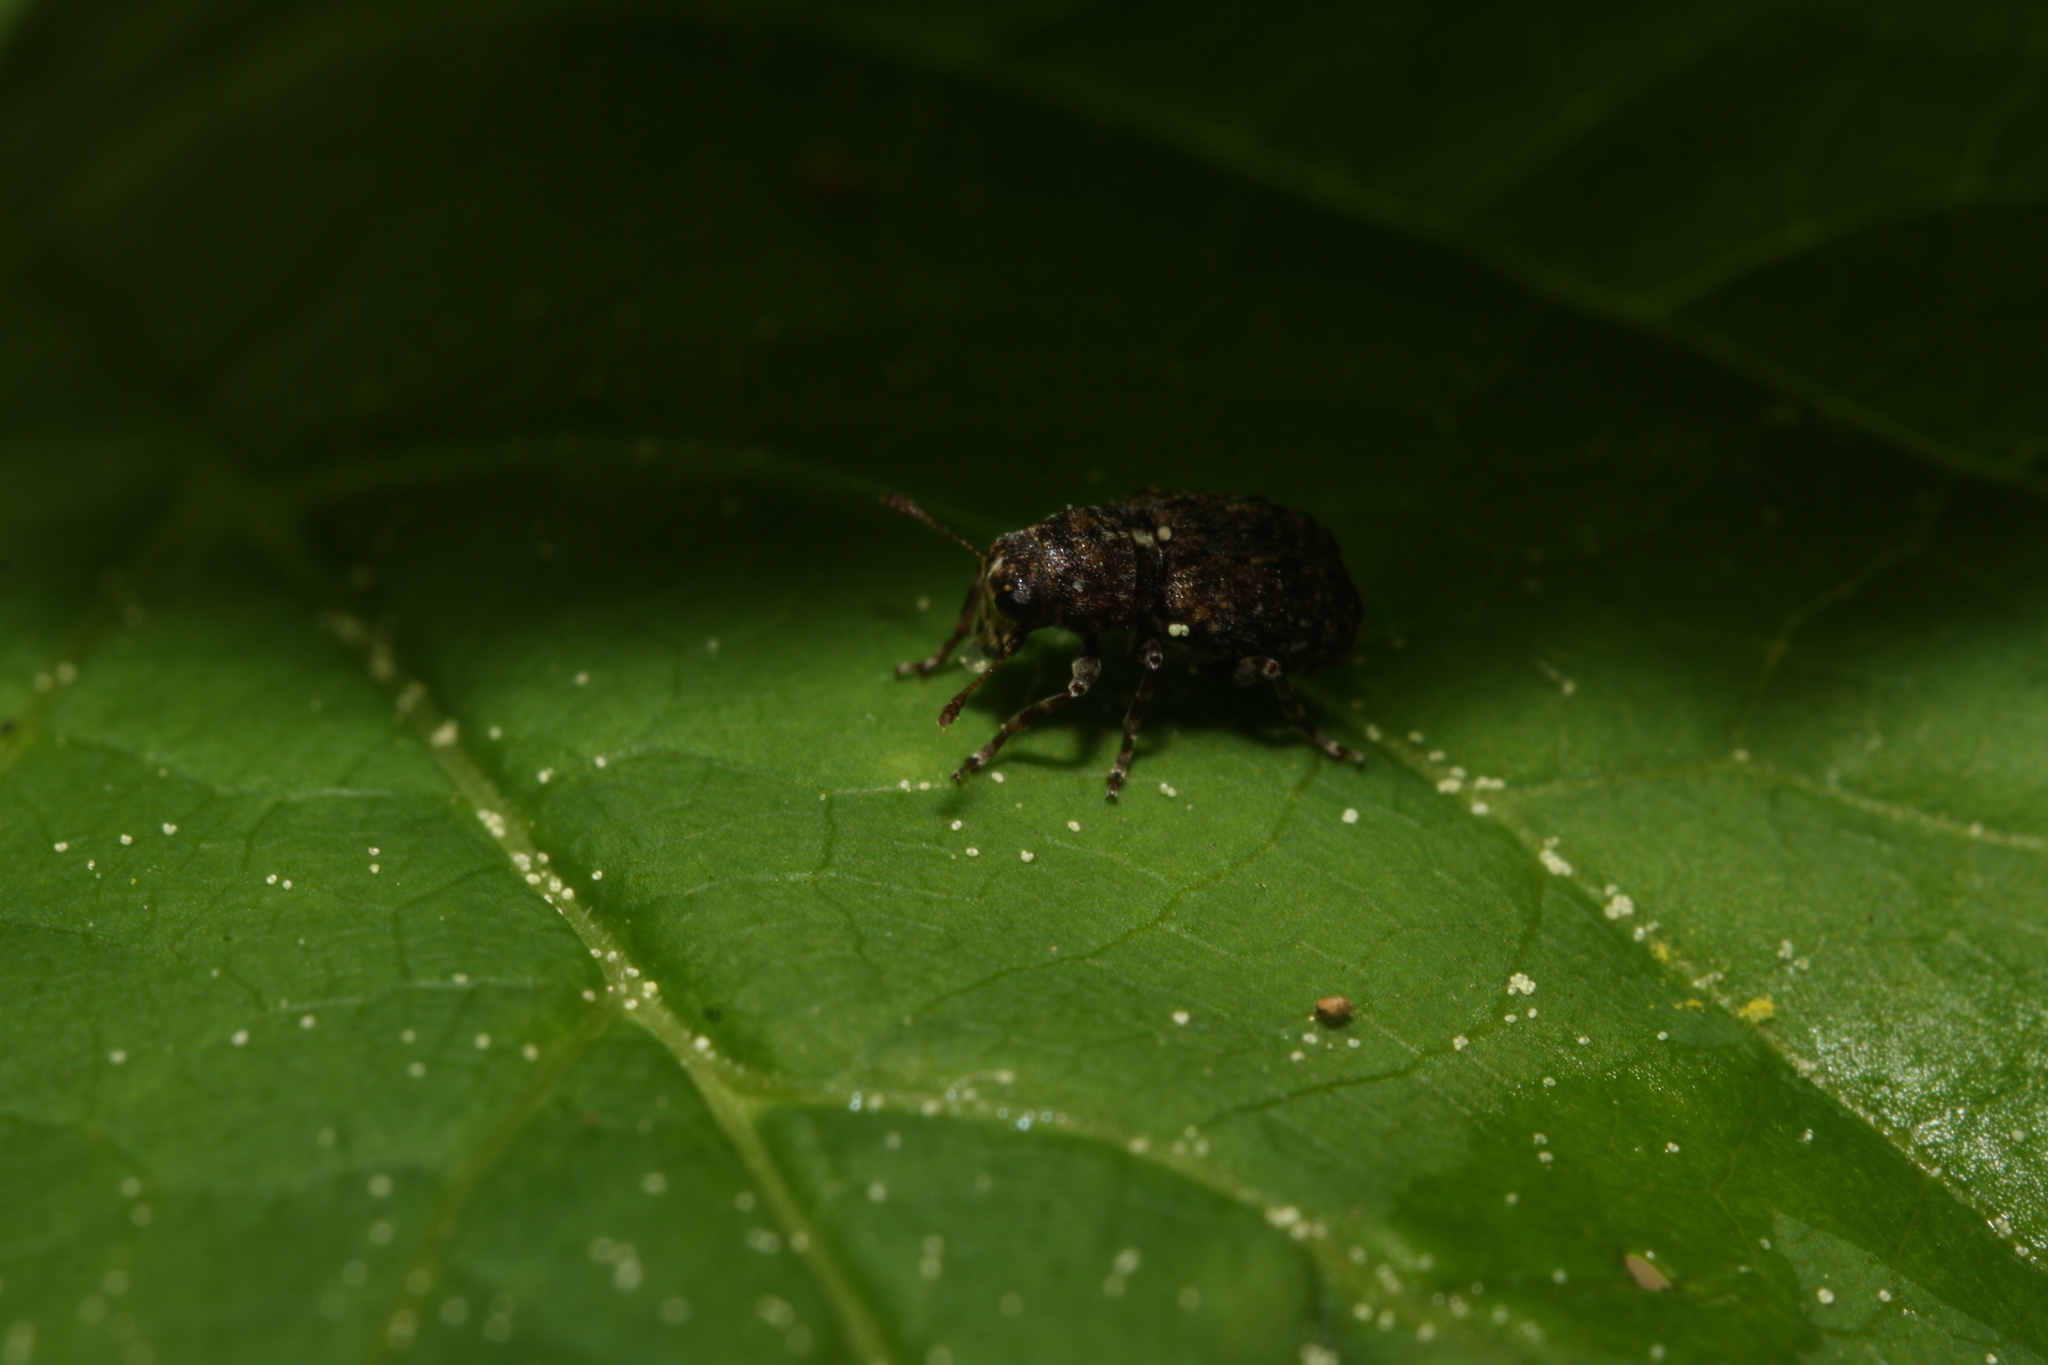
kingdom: Animalia
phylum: Arthropoda
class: Insecta
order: Coleoptera
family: Anthribidae
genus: Dissoleucas
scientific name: Dissoleucas niveirostris
